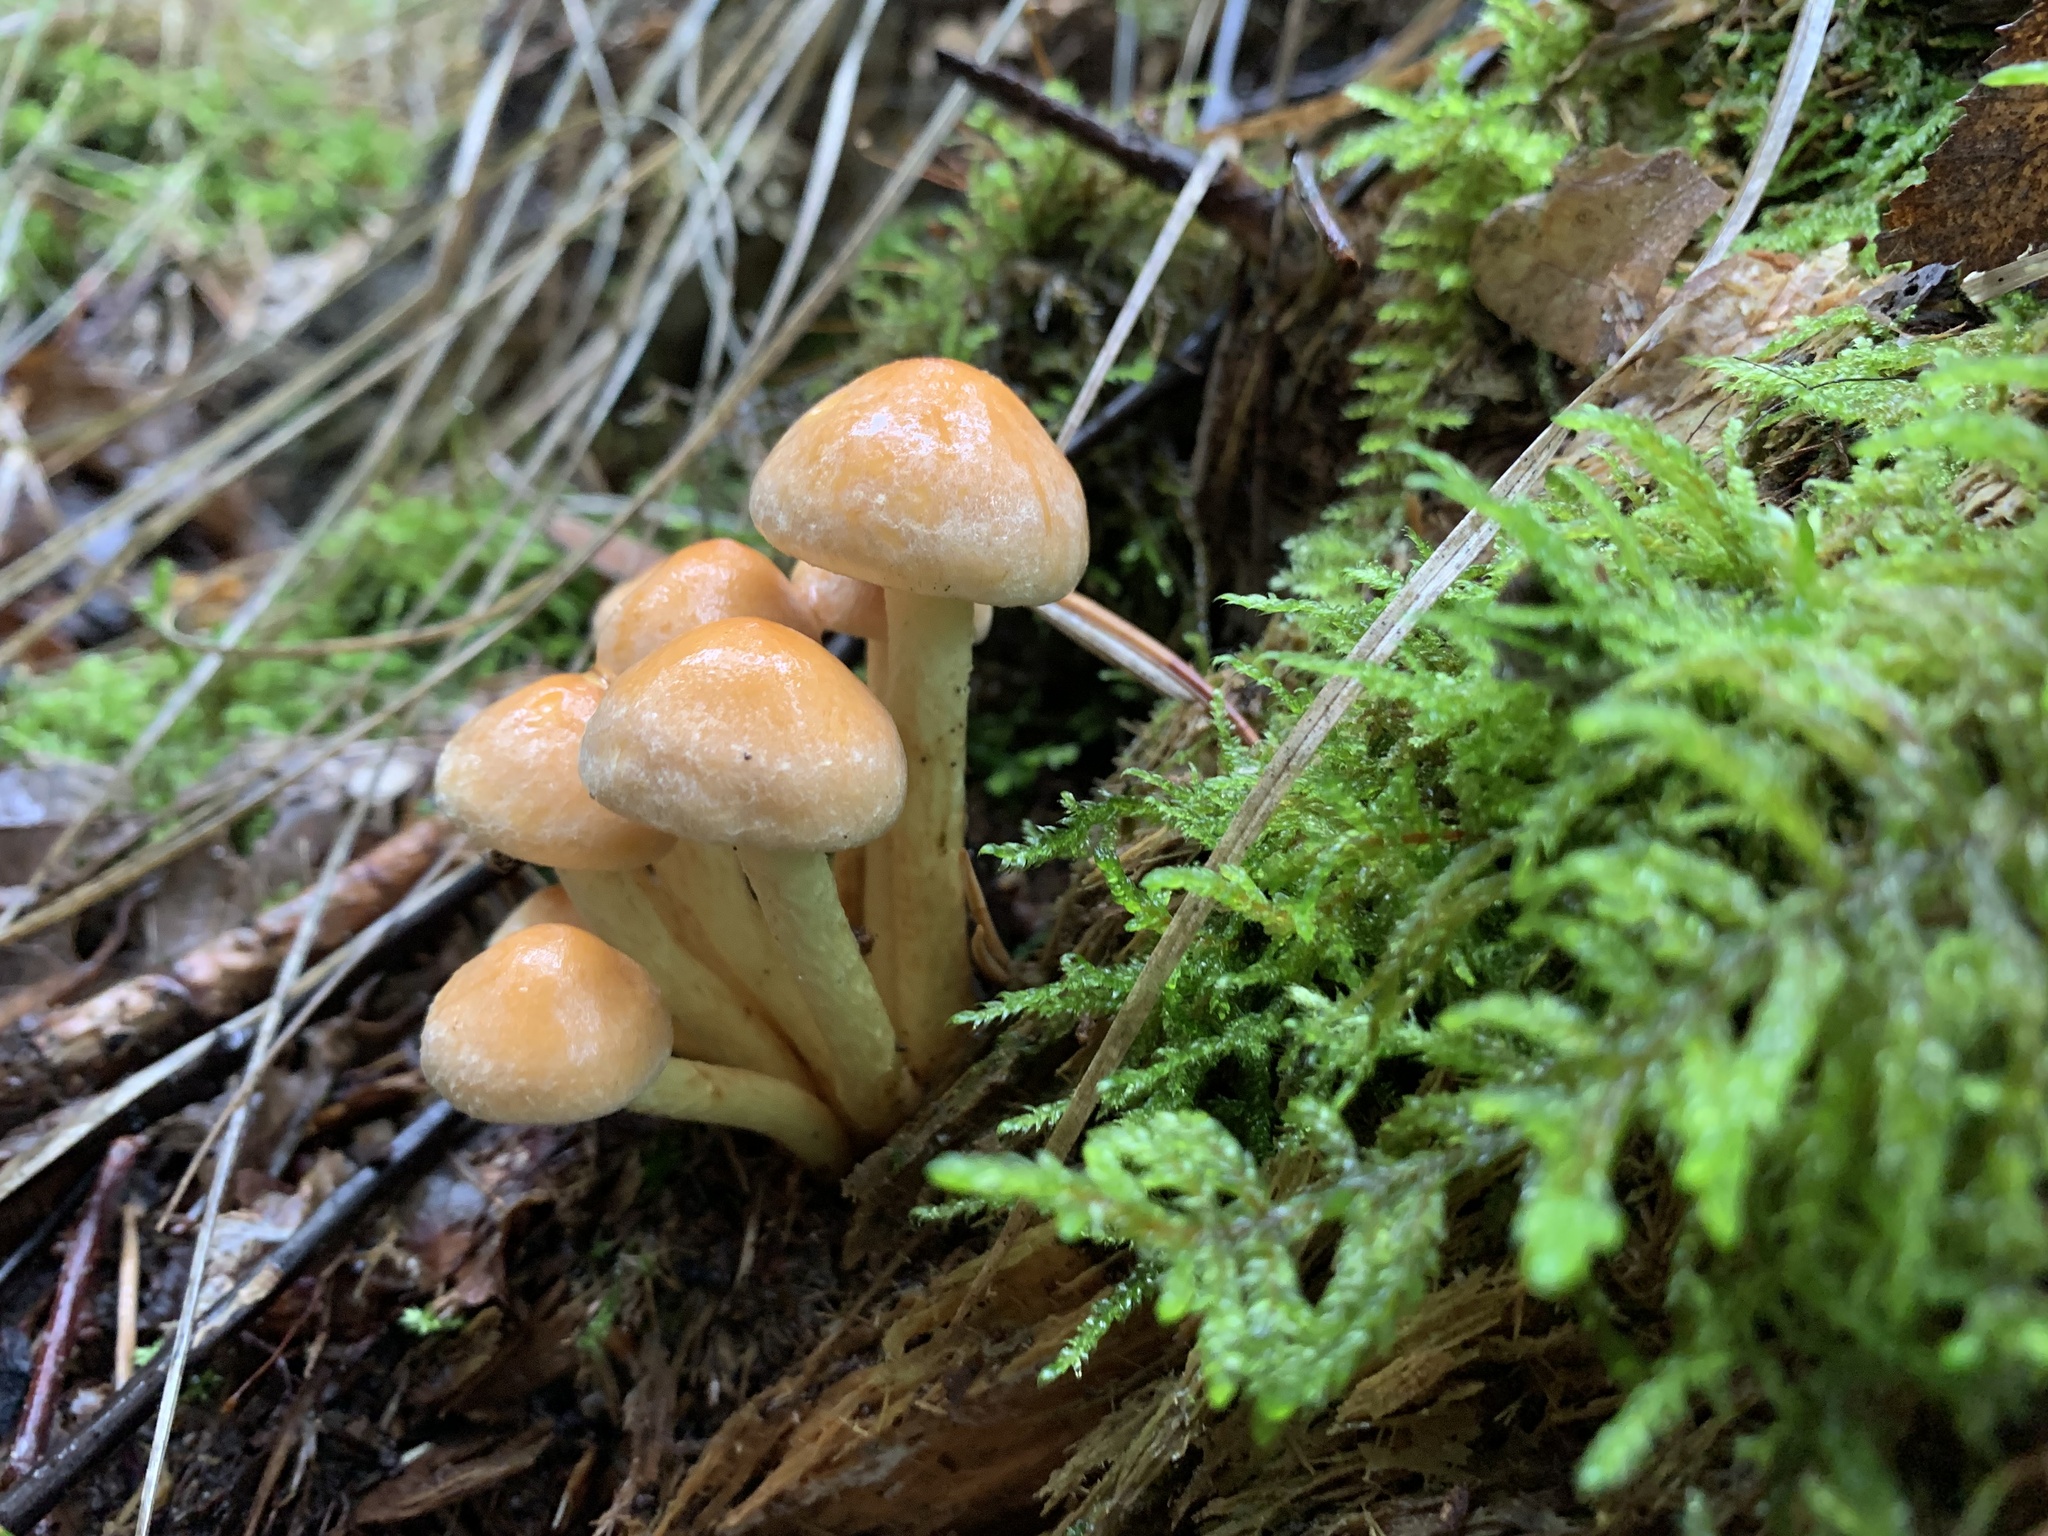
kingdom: Fungi
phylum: Basidiomycota
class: Agaricomycetes
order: Agaricales
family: Strophariaceae
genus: Hypholoma
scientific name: Hypholoma fasciculare
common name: Sulphur tuft
